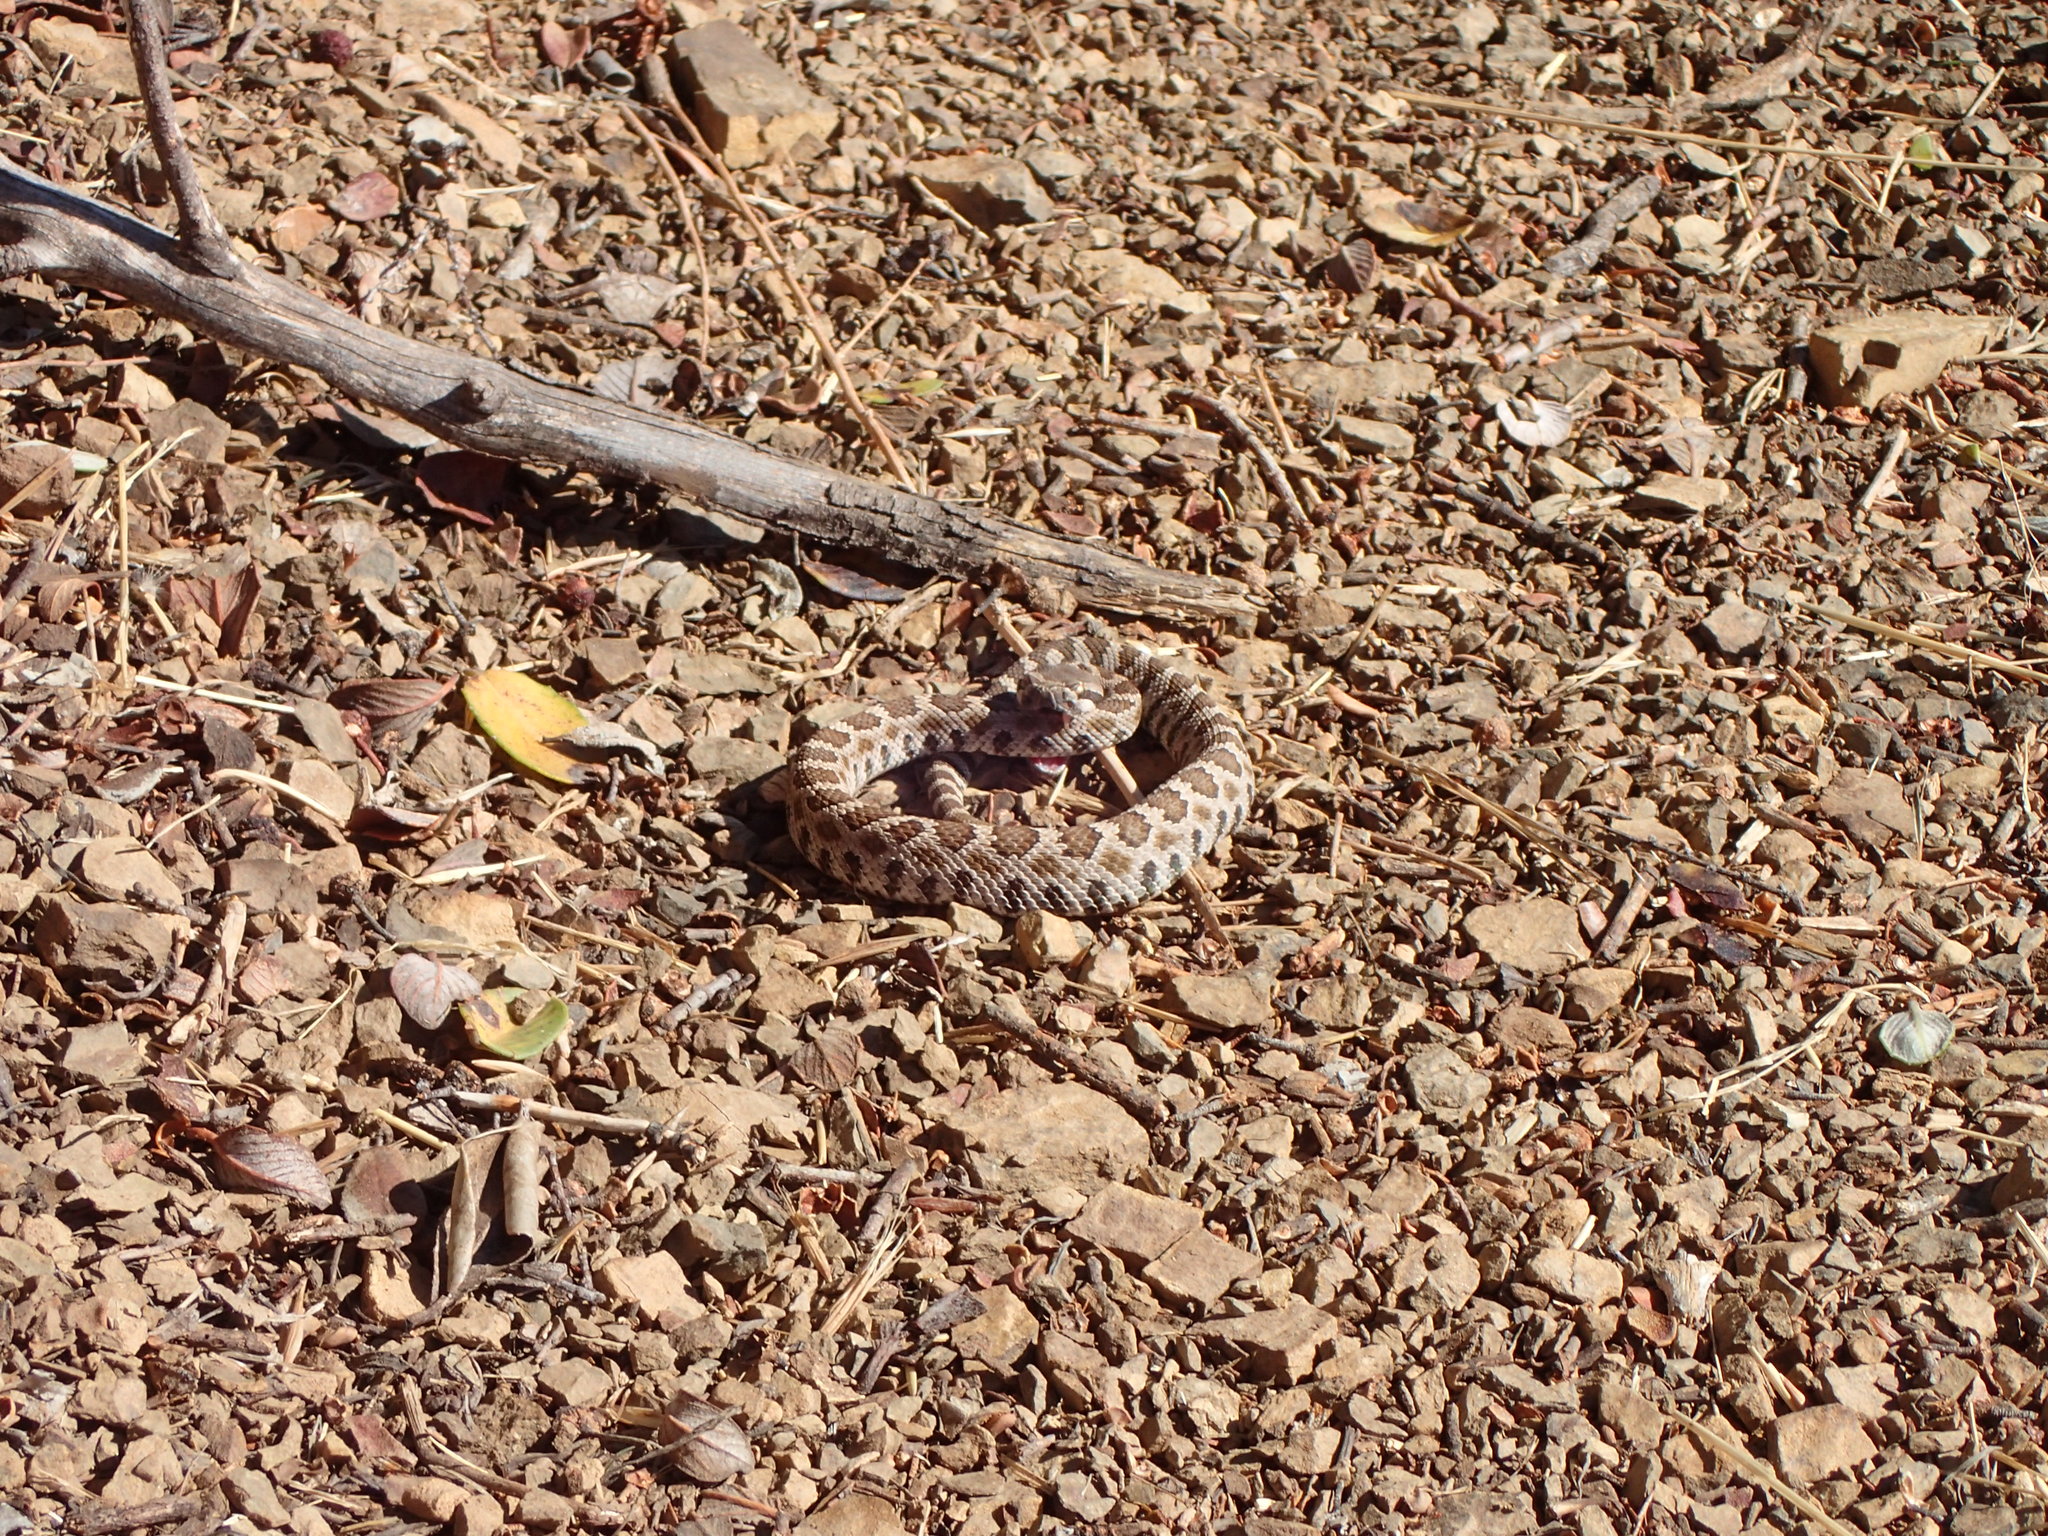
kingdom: Animalia
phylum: Chordata
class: Squamata
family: Viperidae
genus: Crotalus
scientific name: Crotalus oreganus
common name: Abyssus
